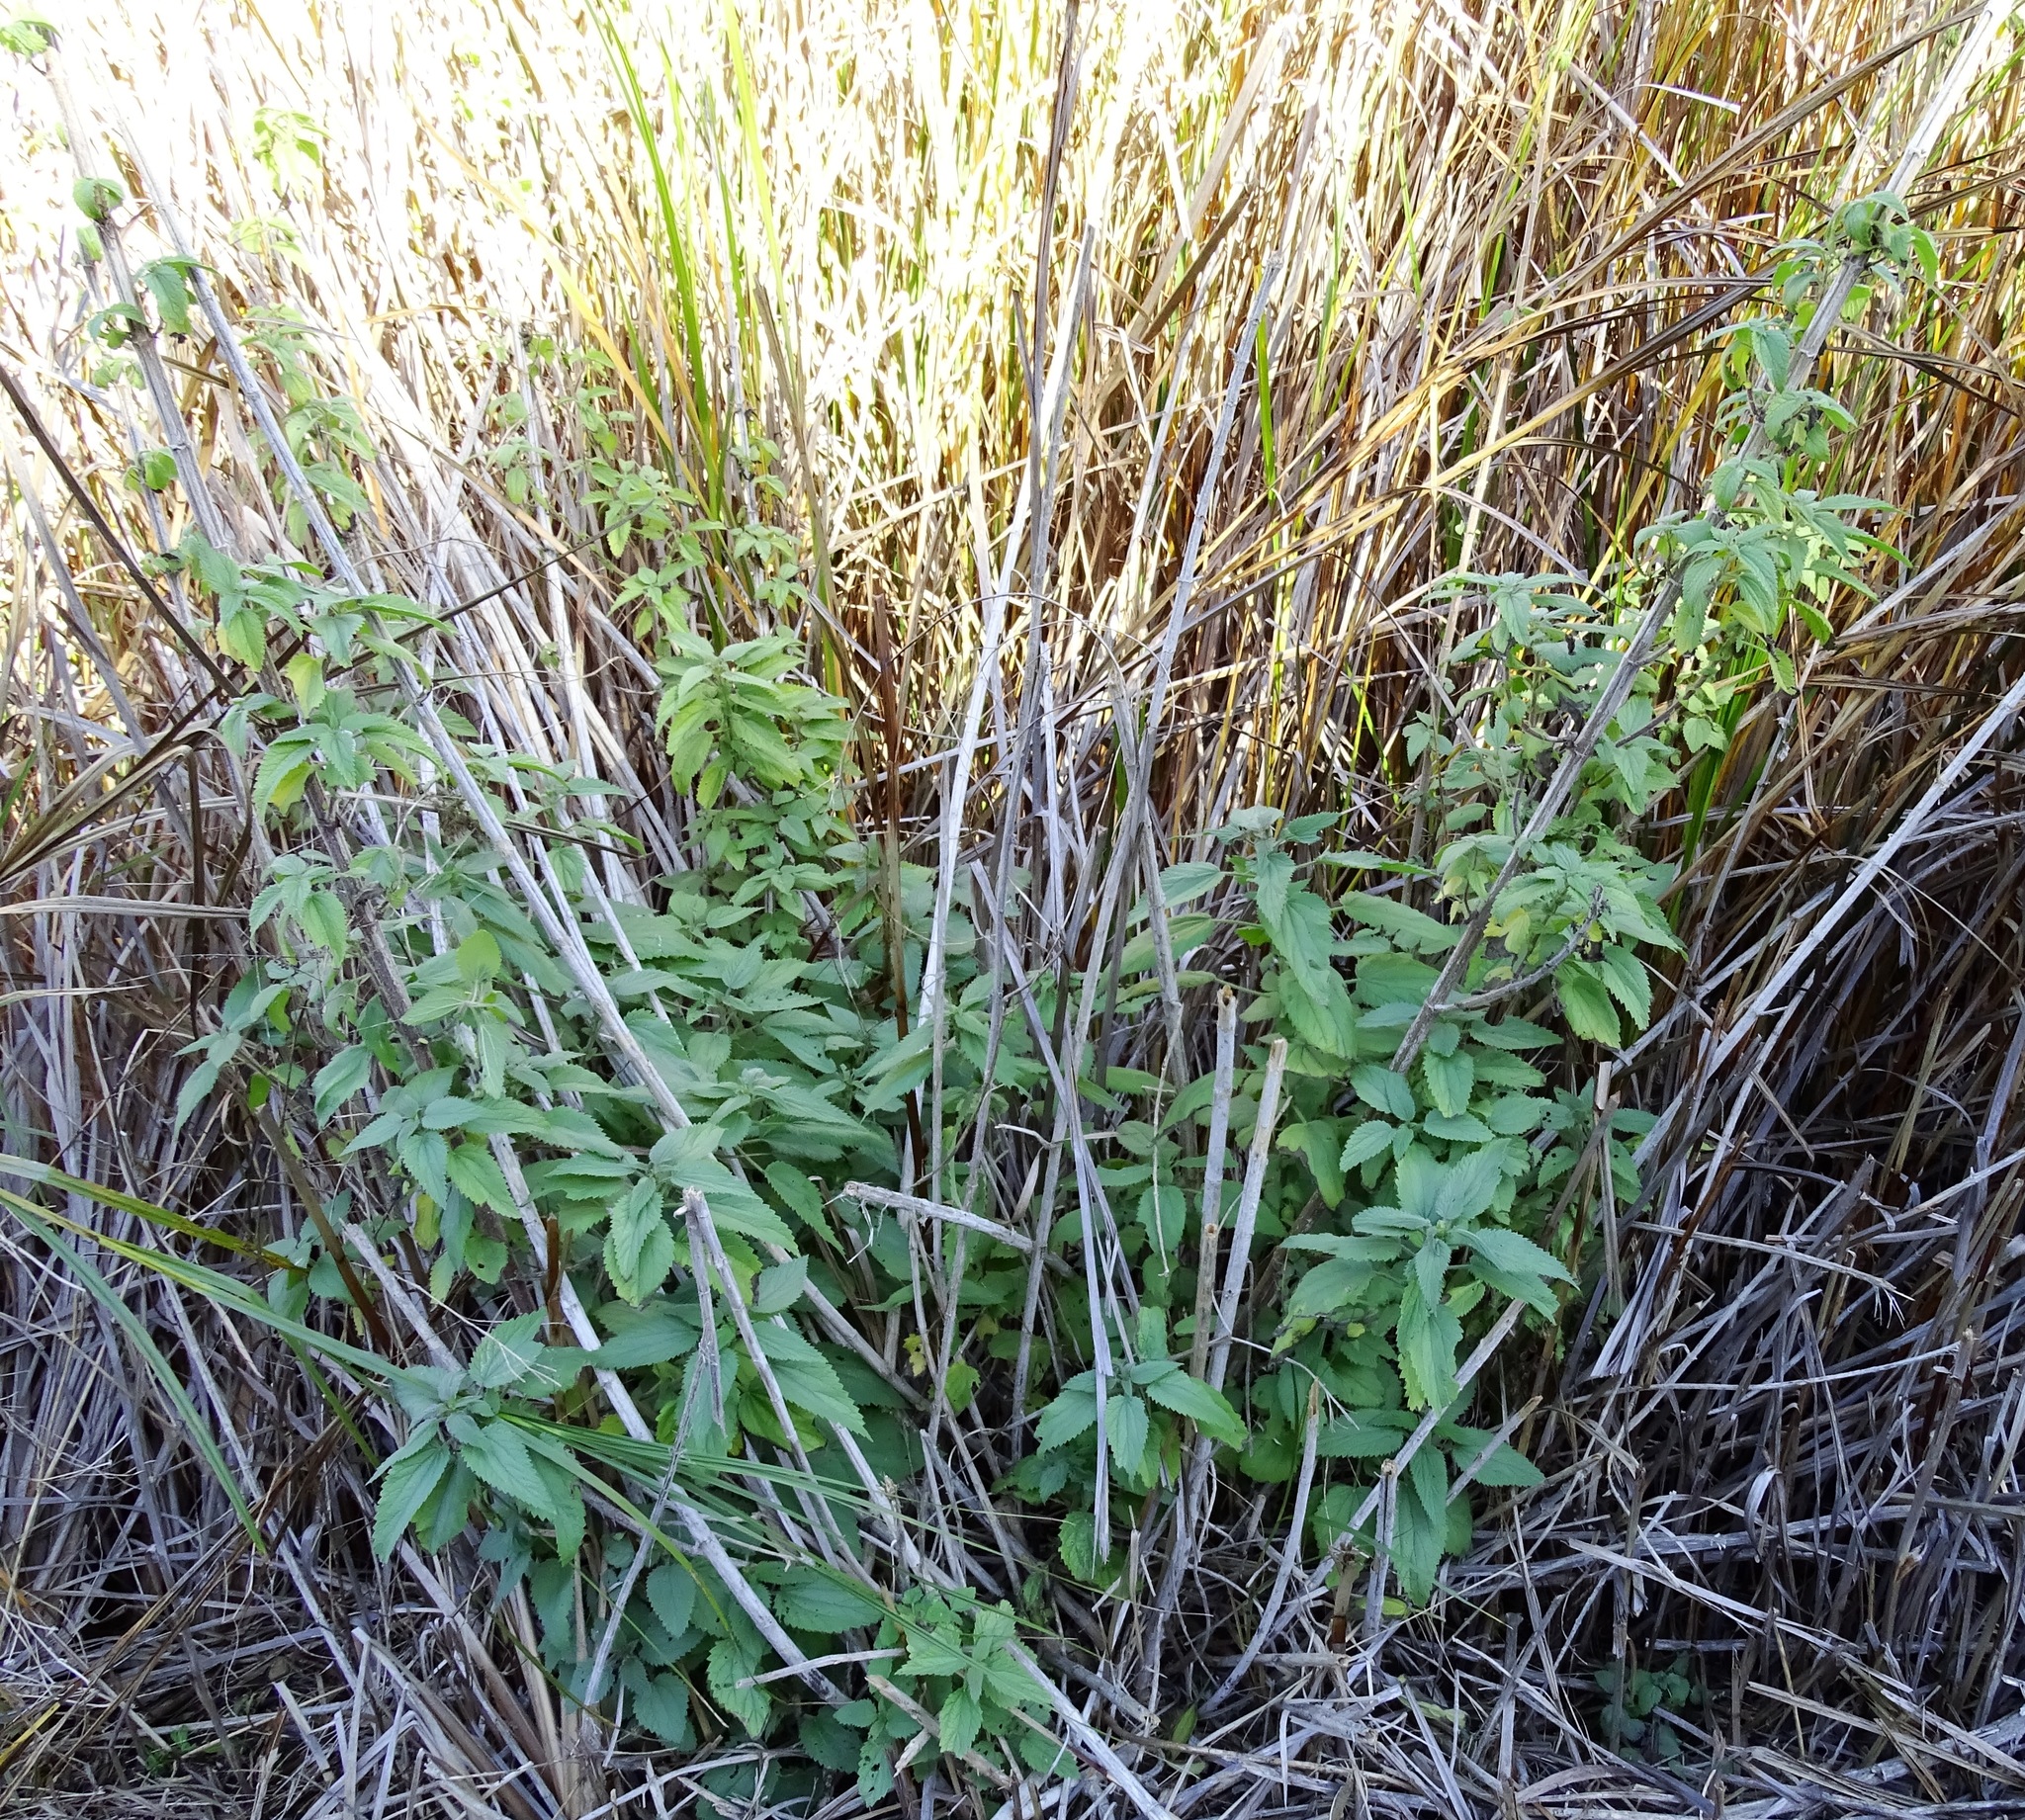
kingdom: Plantae
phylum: Tracheophyta
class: Magnoliopsida
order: Rosales
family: Urticaceae
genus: Urtica
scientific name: Urtica dioica
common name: Common nettle
